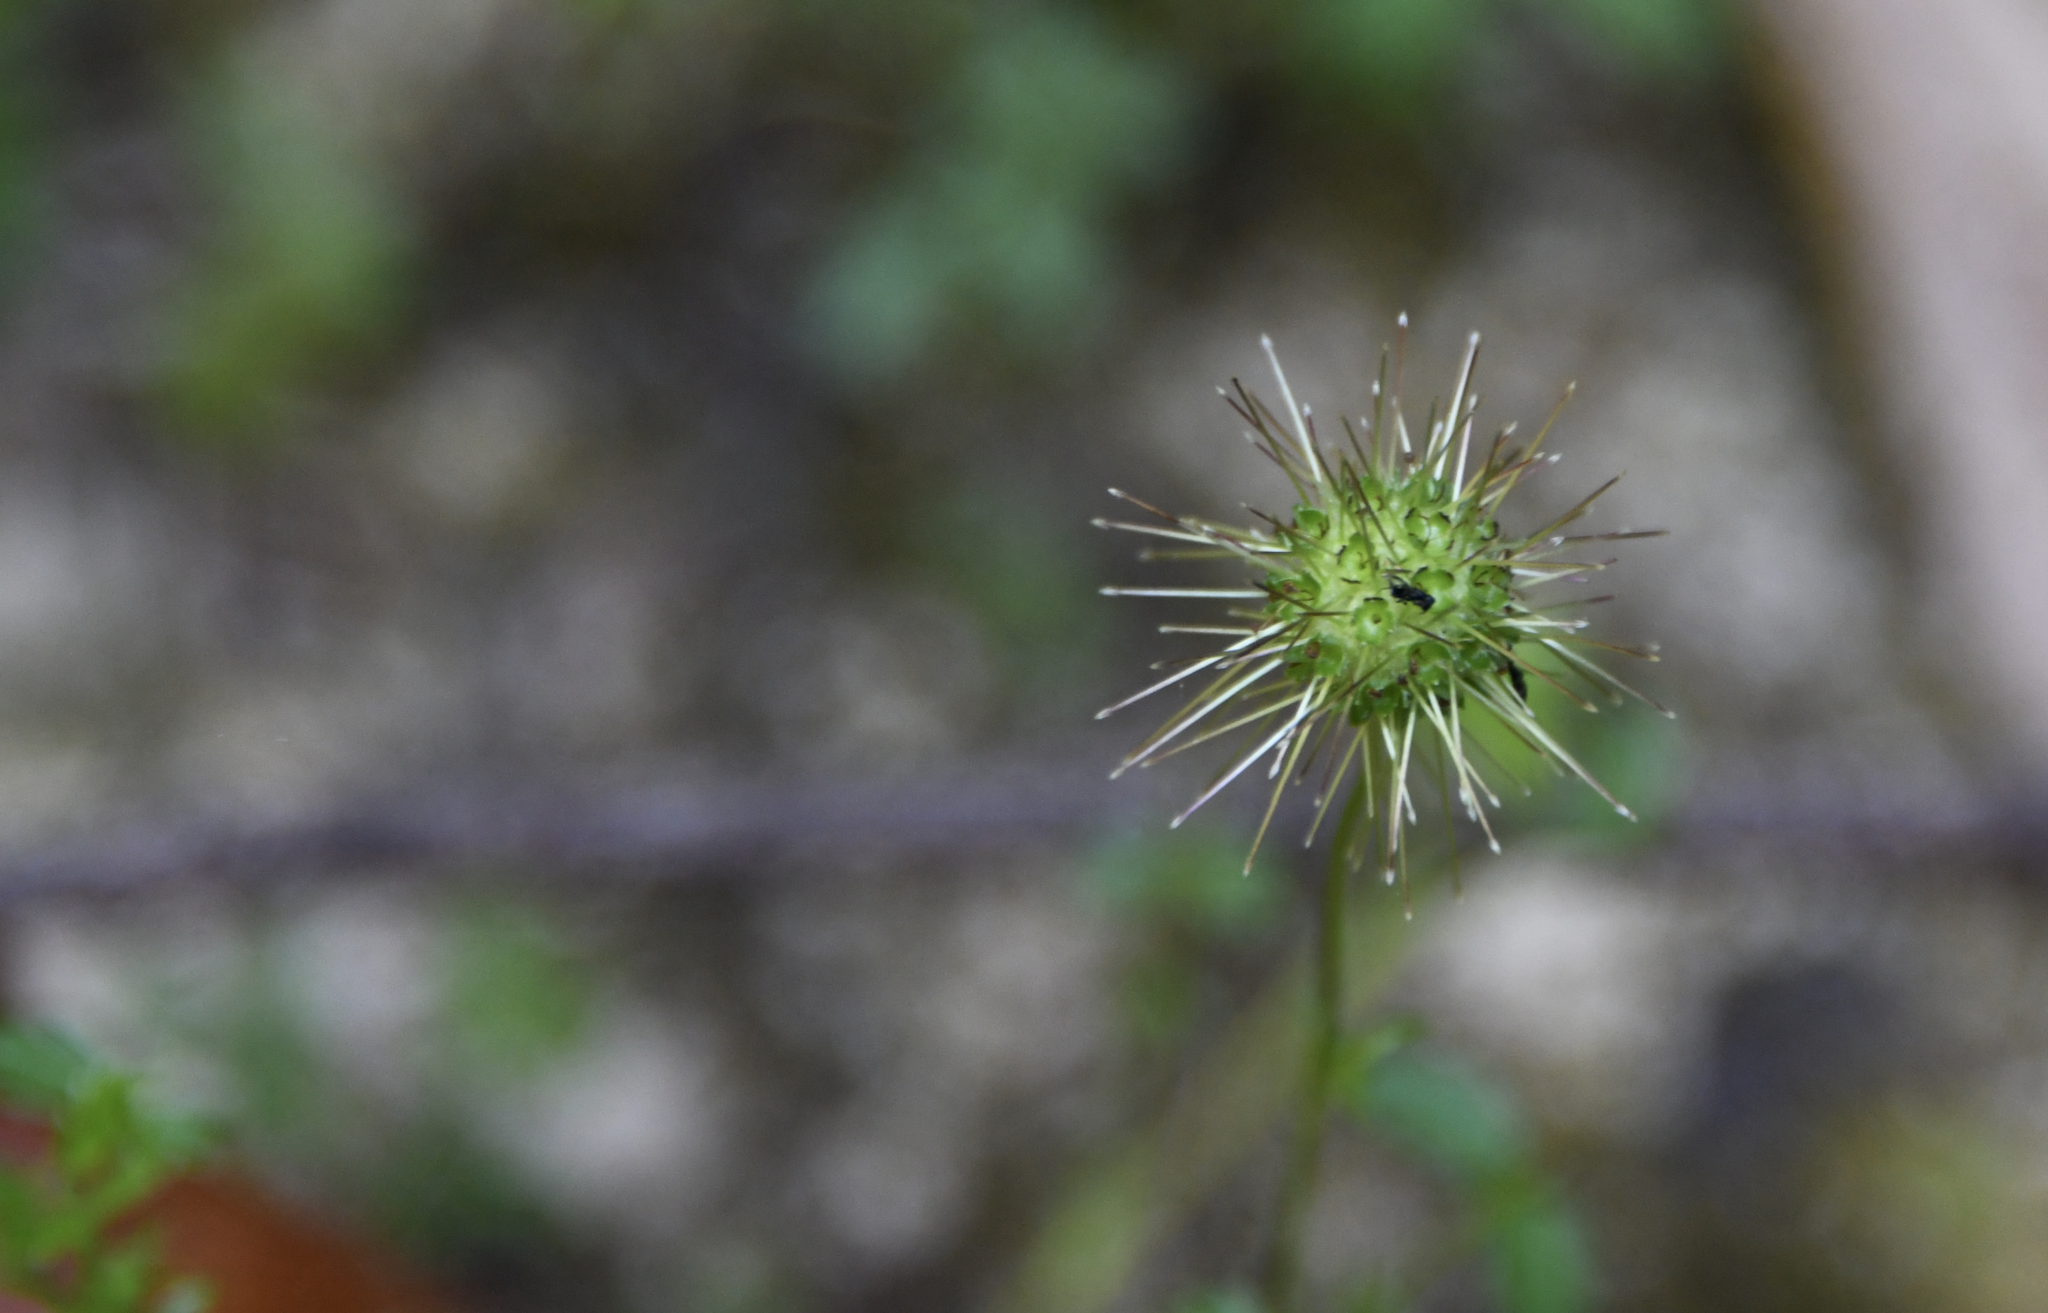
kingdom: Plantae
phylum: Tracheophyta
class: Magnoliopsida
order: Rosales
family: Rosaceae
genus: Acaena
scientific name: Acaena pallida
